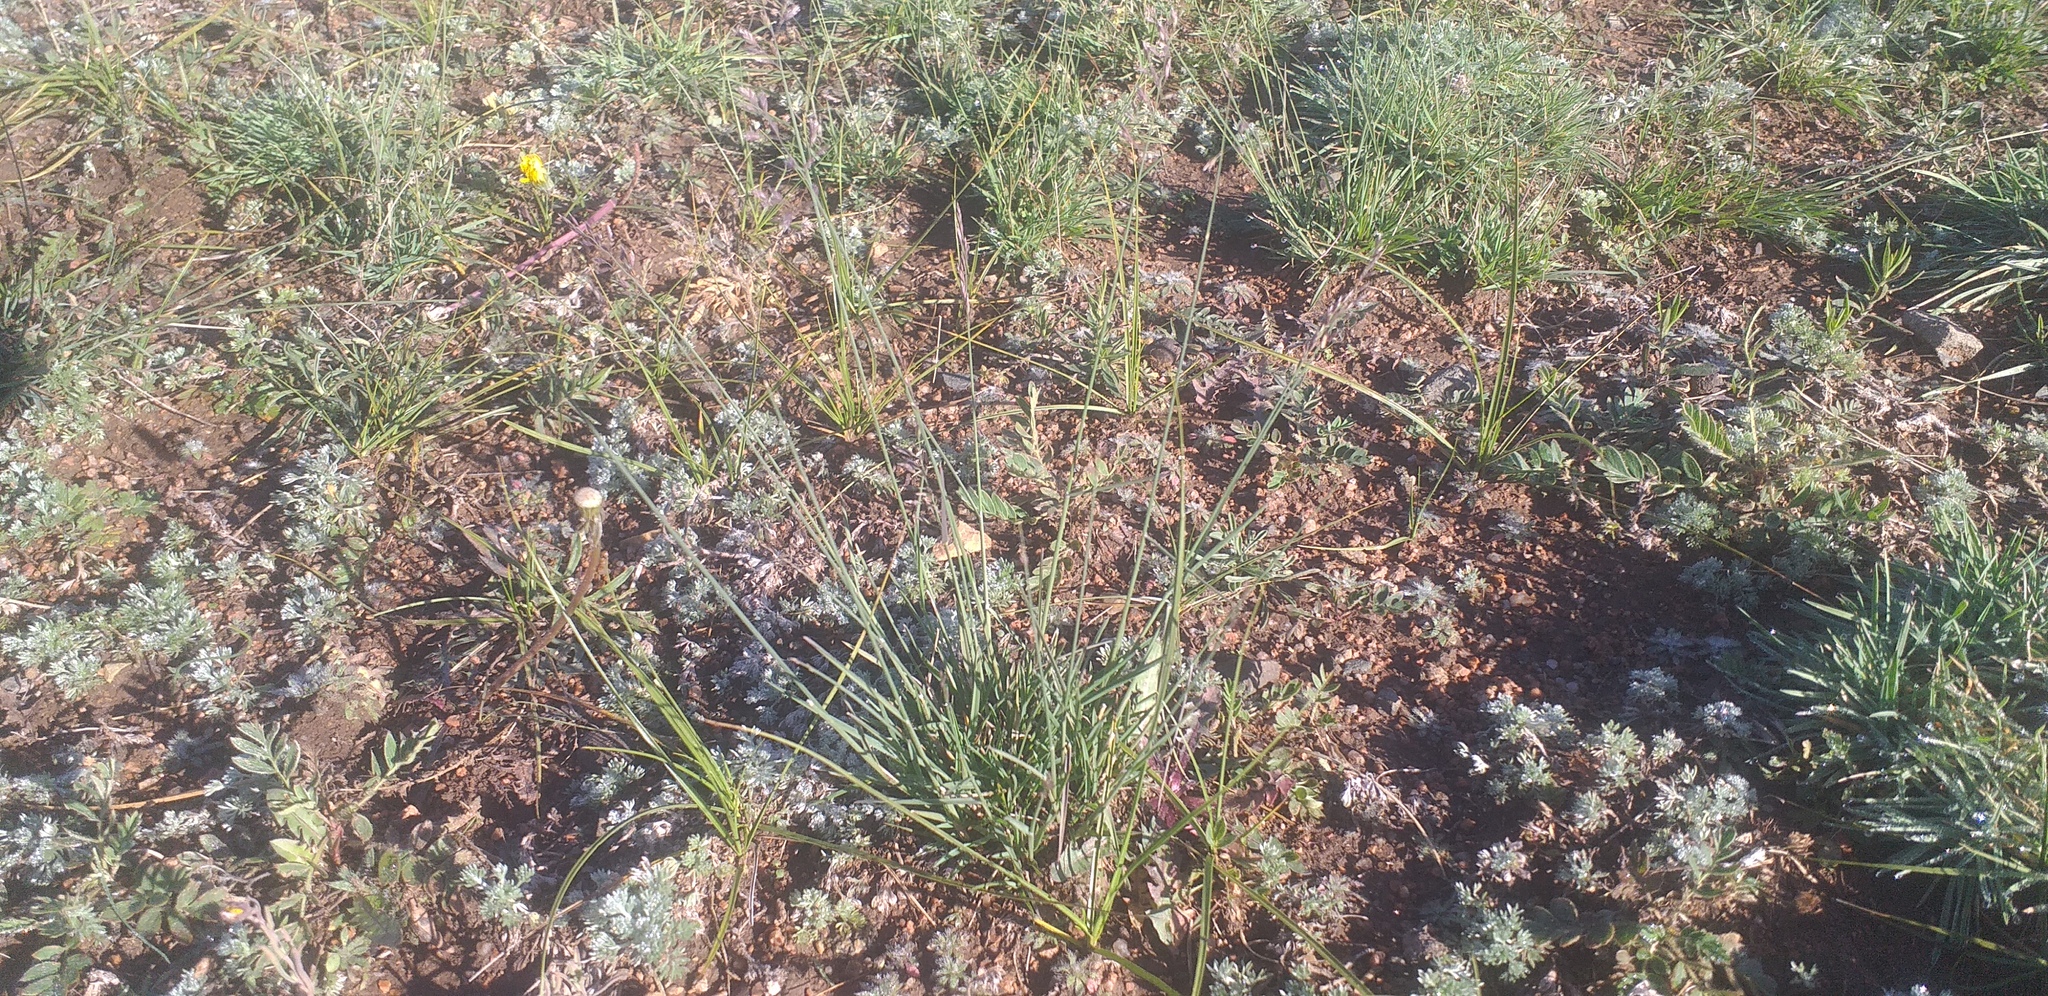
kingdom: Plantae
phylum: Tracheophyta
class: Liliopsida
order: Poales
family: Poaceae
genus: Festuca
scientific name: Festuca lenensis
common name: Lena river fescue
